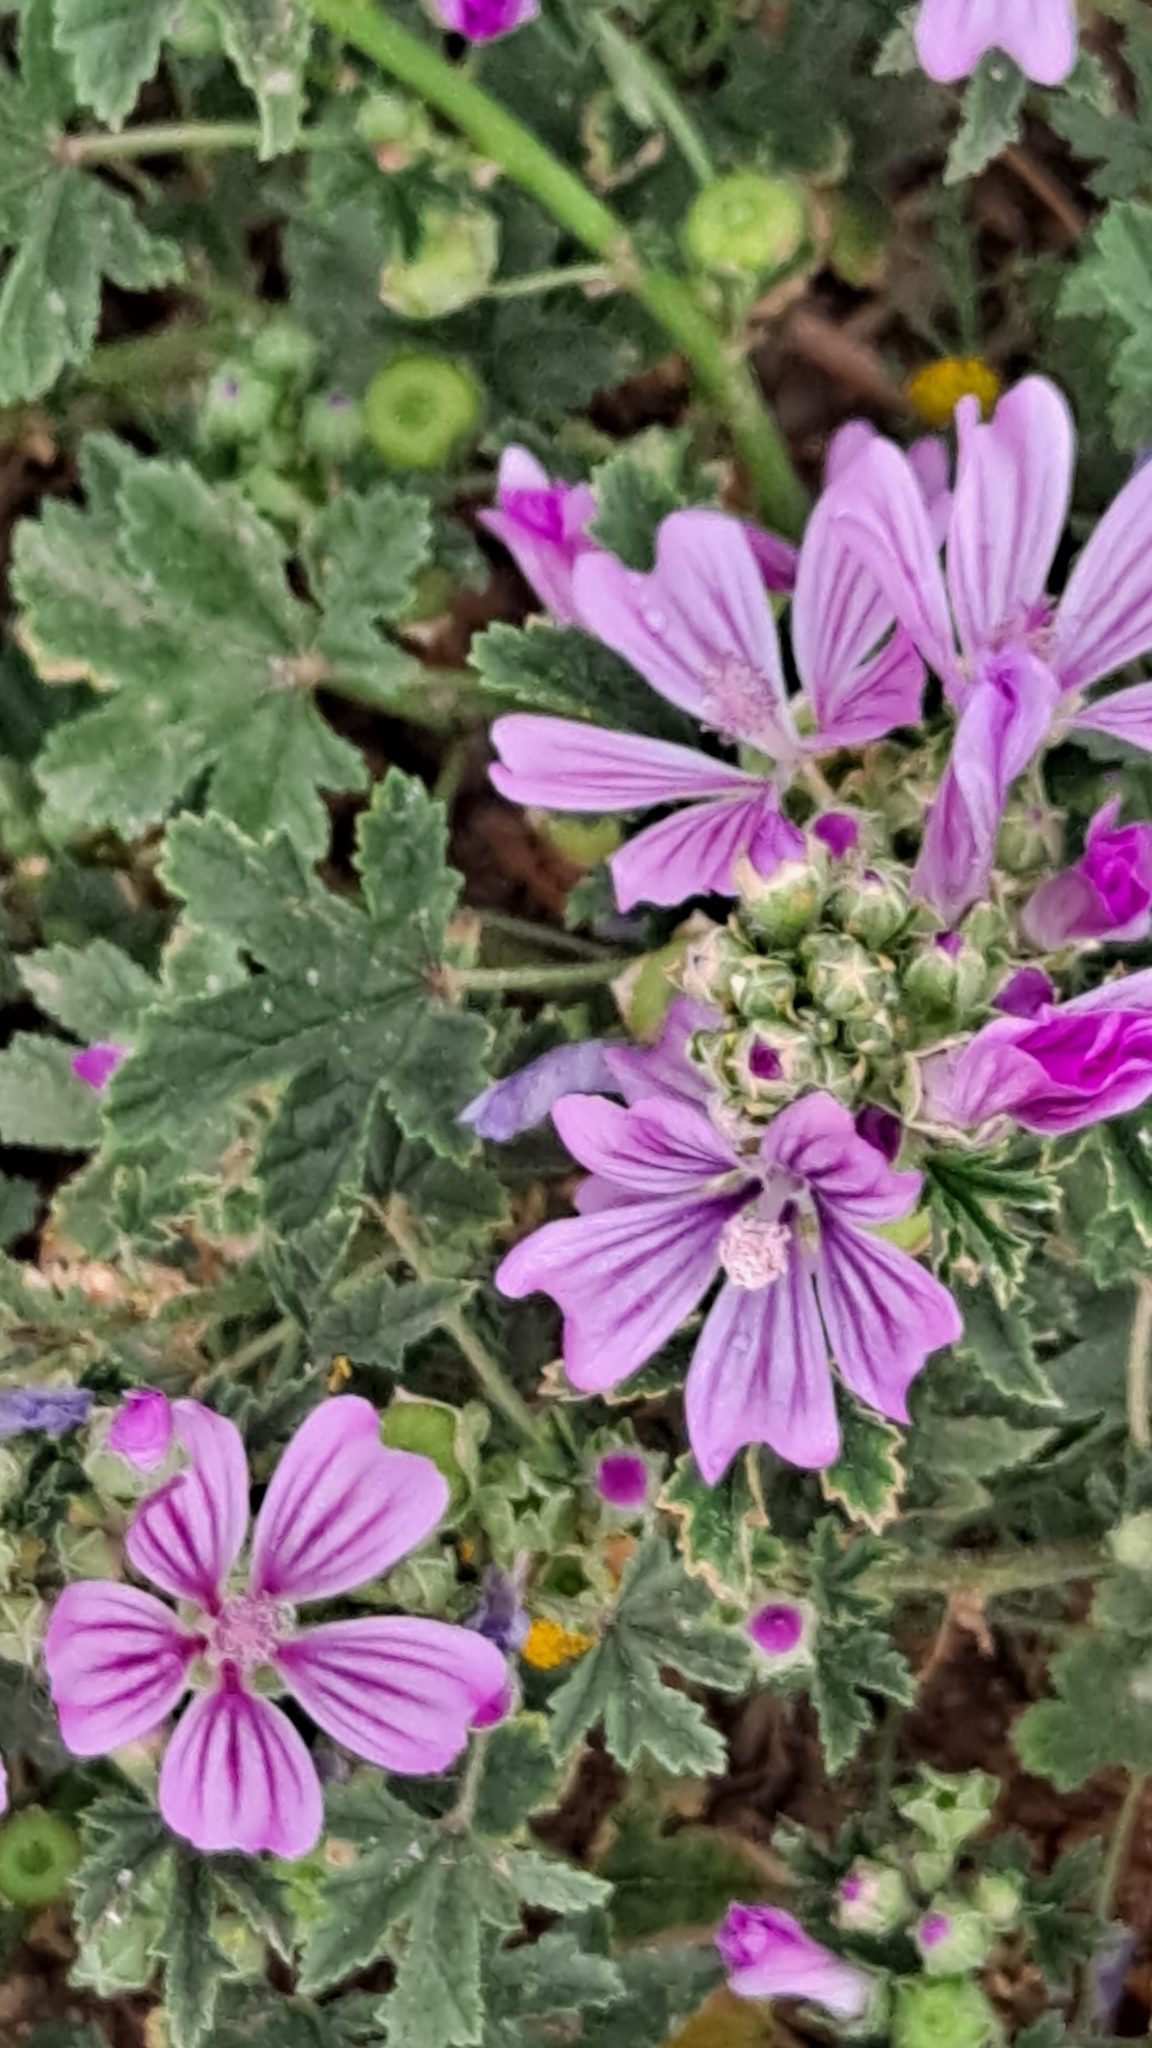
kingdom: Plantae
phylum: Tracheophyta
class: Magnoliopsida
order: Malvales
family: Malvaceae
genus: Malva
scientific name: Malva sylvestris
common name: Common mallow
